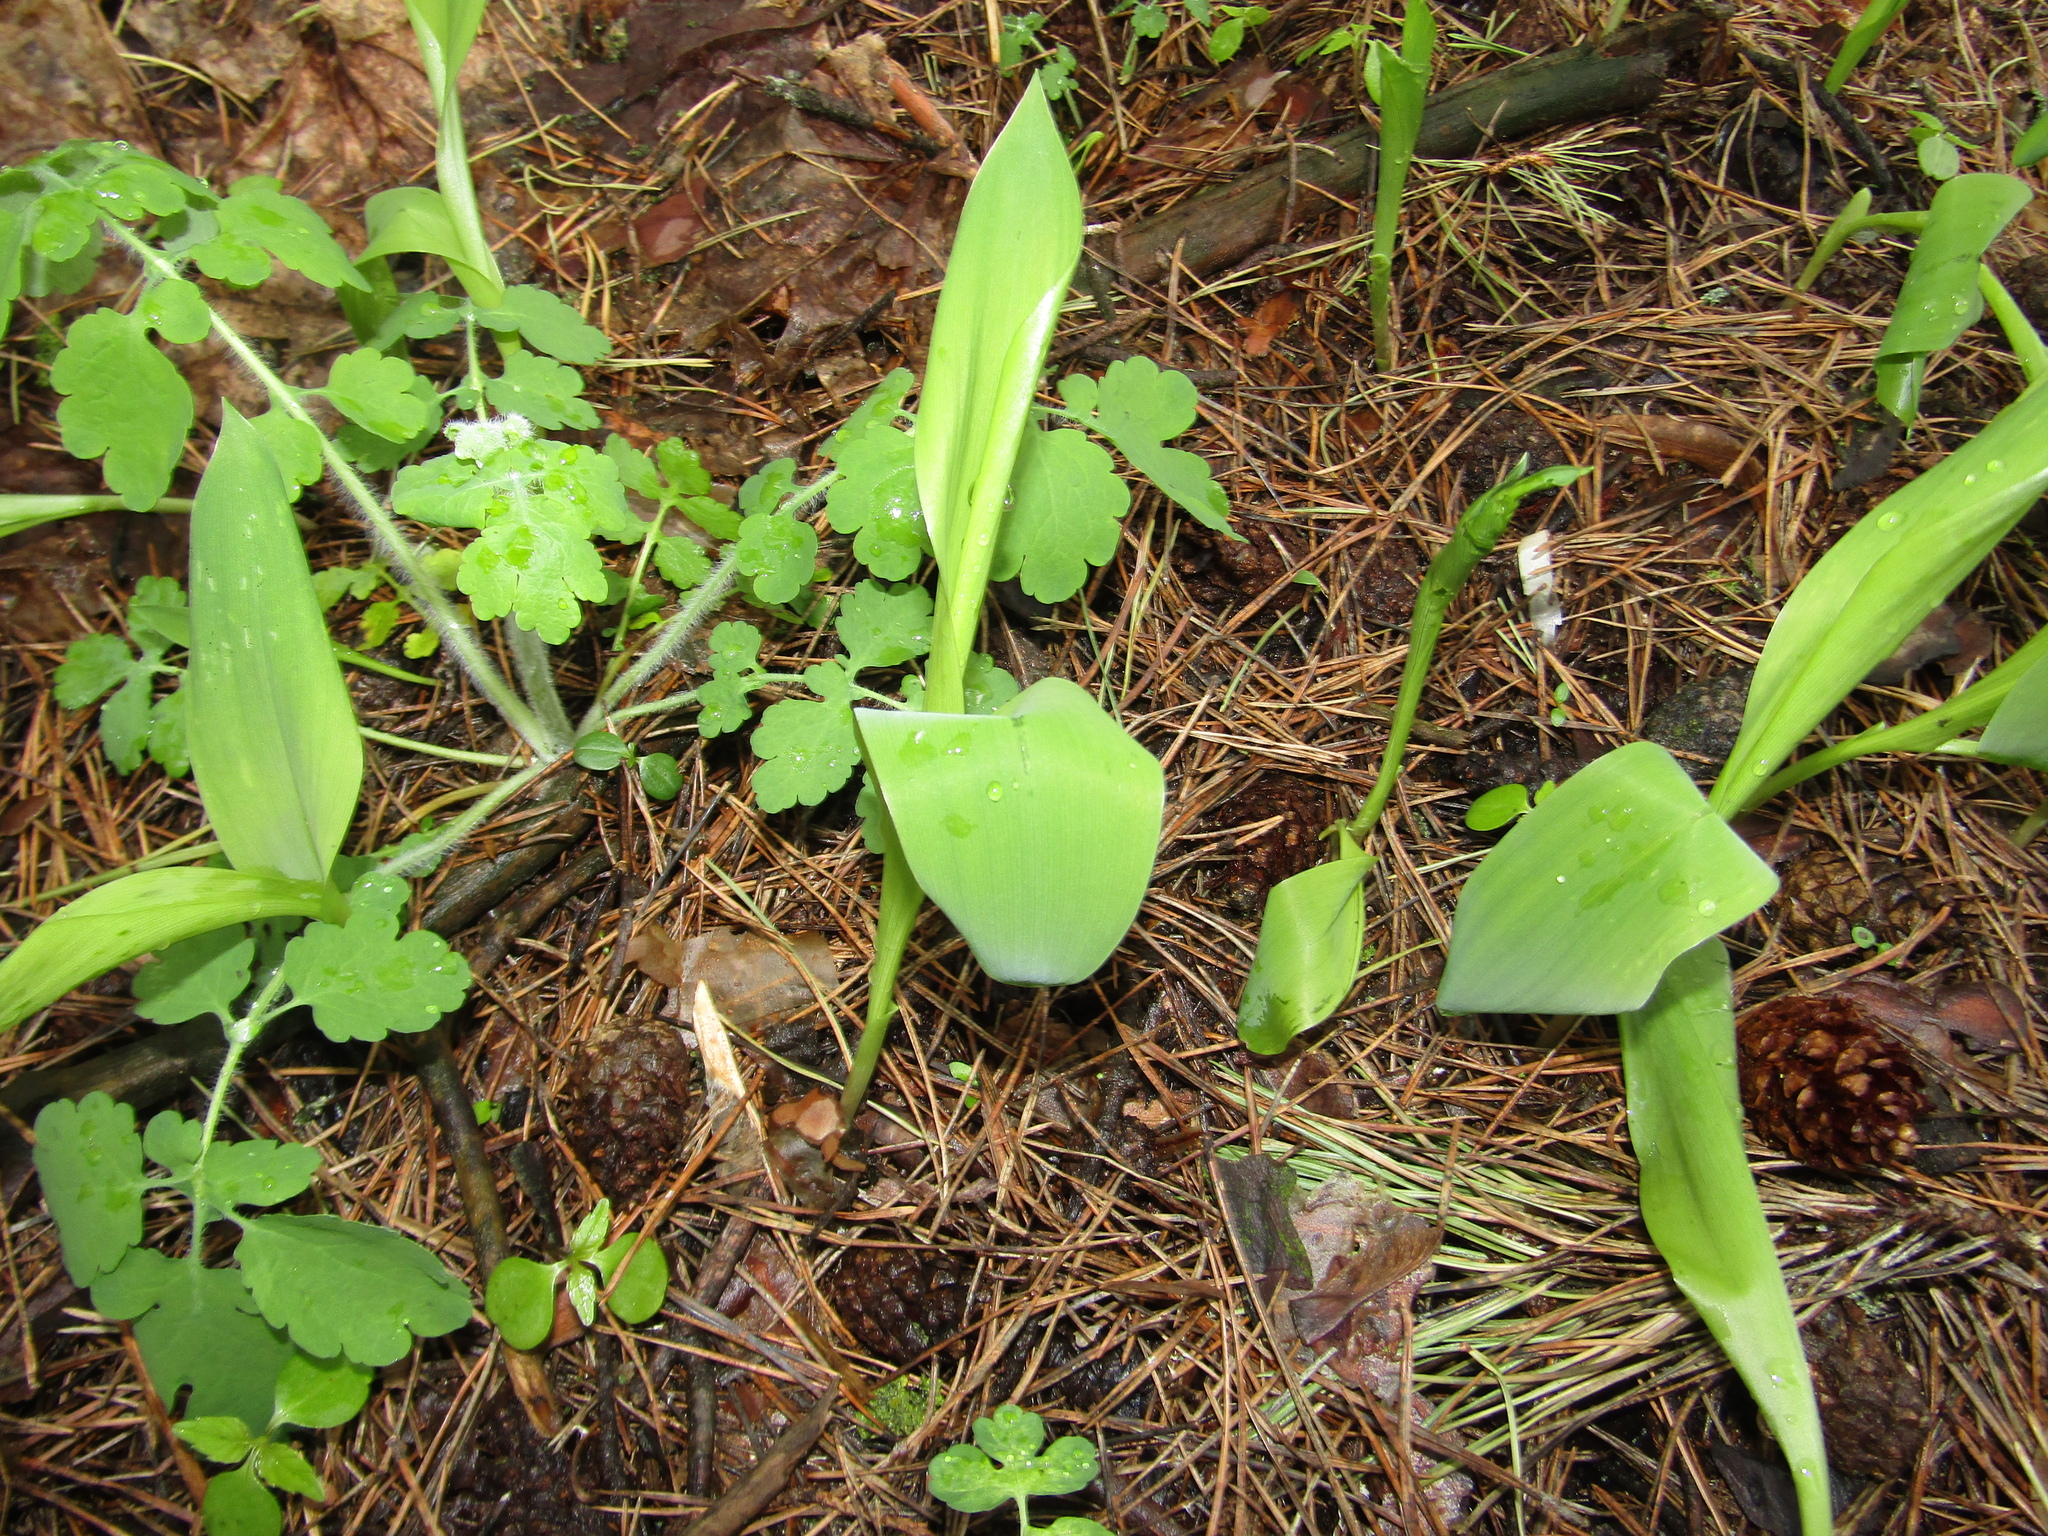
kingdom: Plantae
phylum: Tracheophyta
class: Liliopsida
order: Asparagales
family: Asparagaceae
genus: Convallaria
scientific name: Convallaria majalis
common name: Lily-of-the-valley
